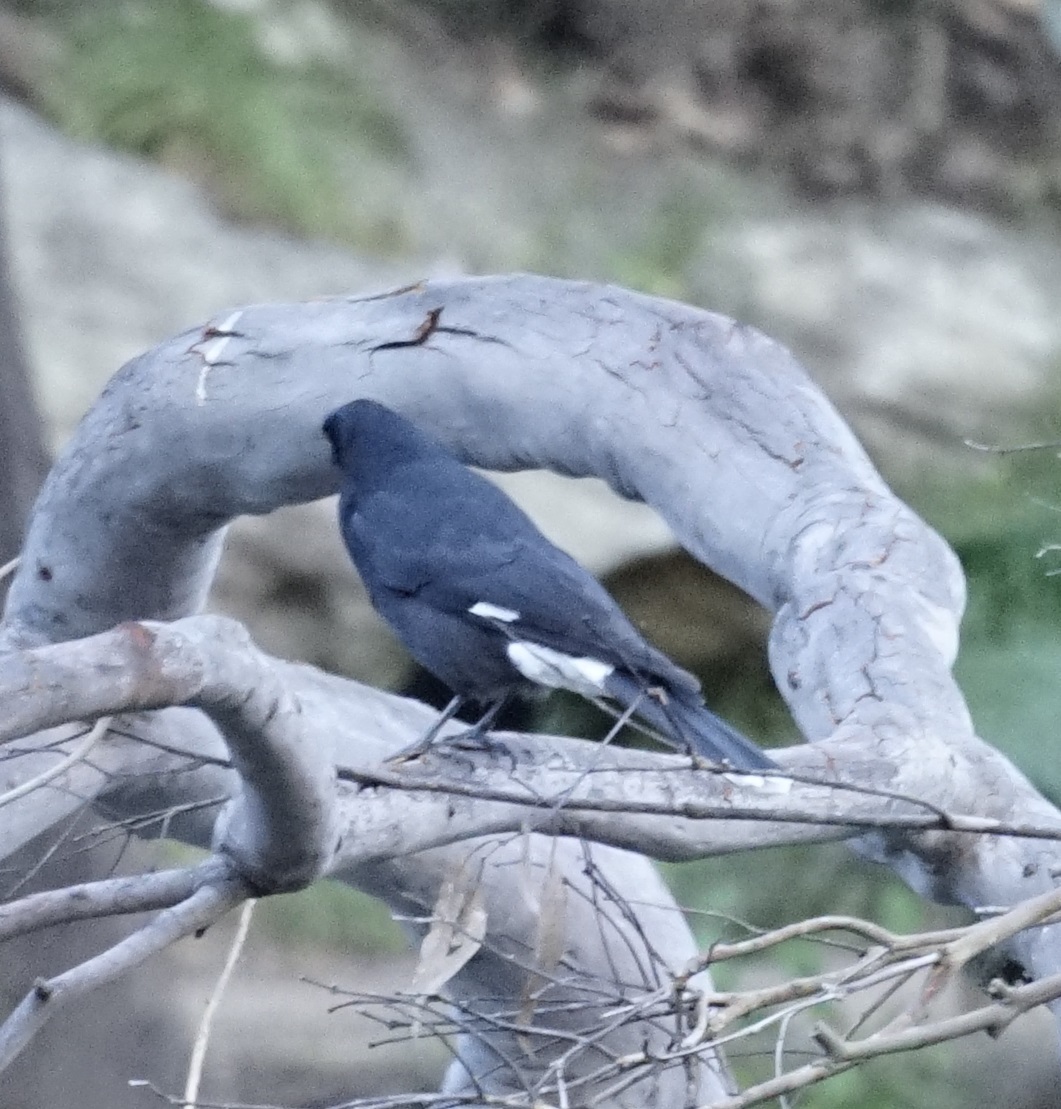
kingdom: Animalia
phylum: Chordata
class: Aves
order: Passeriformes
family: Cracticidae
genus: Strepera
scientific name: Strepera graculina
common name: Pied currawong
